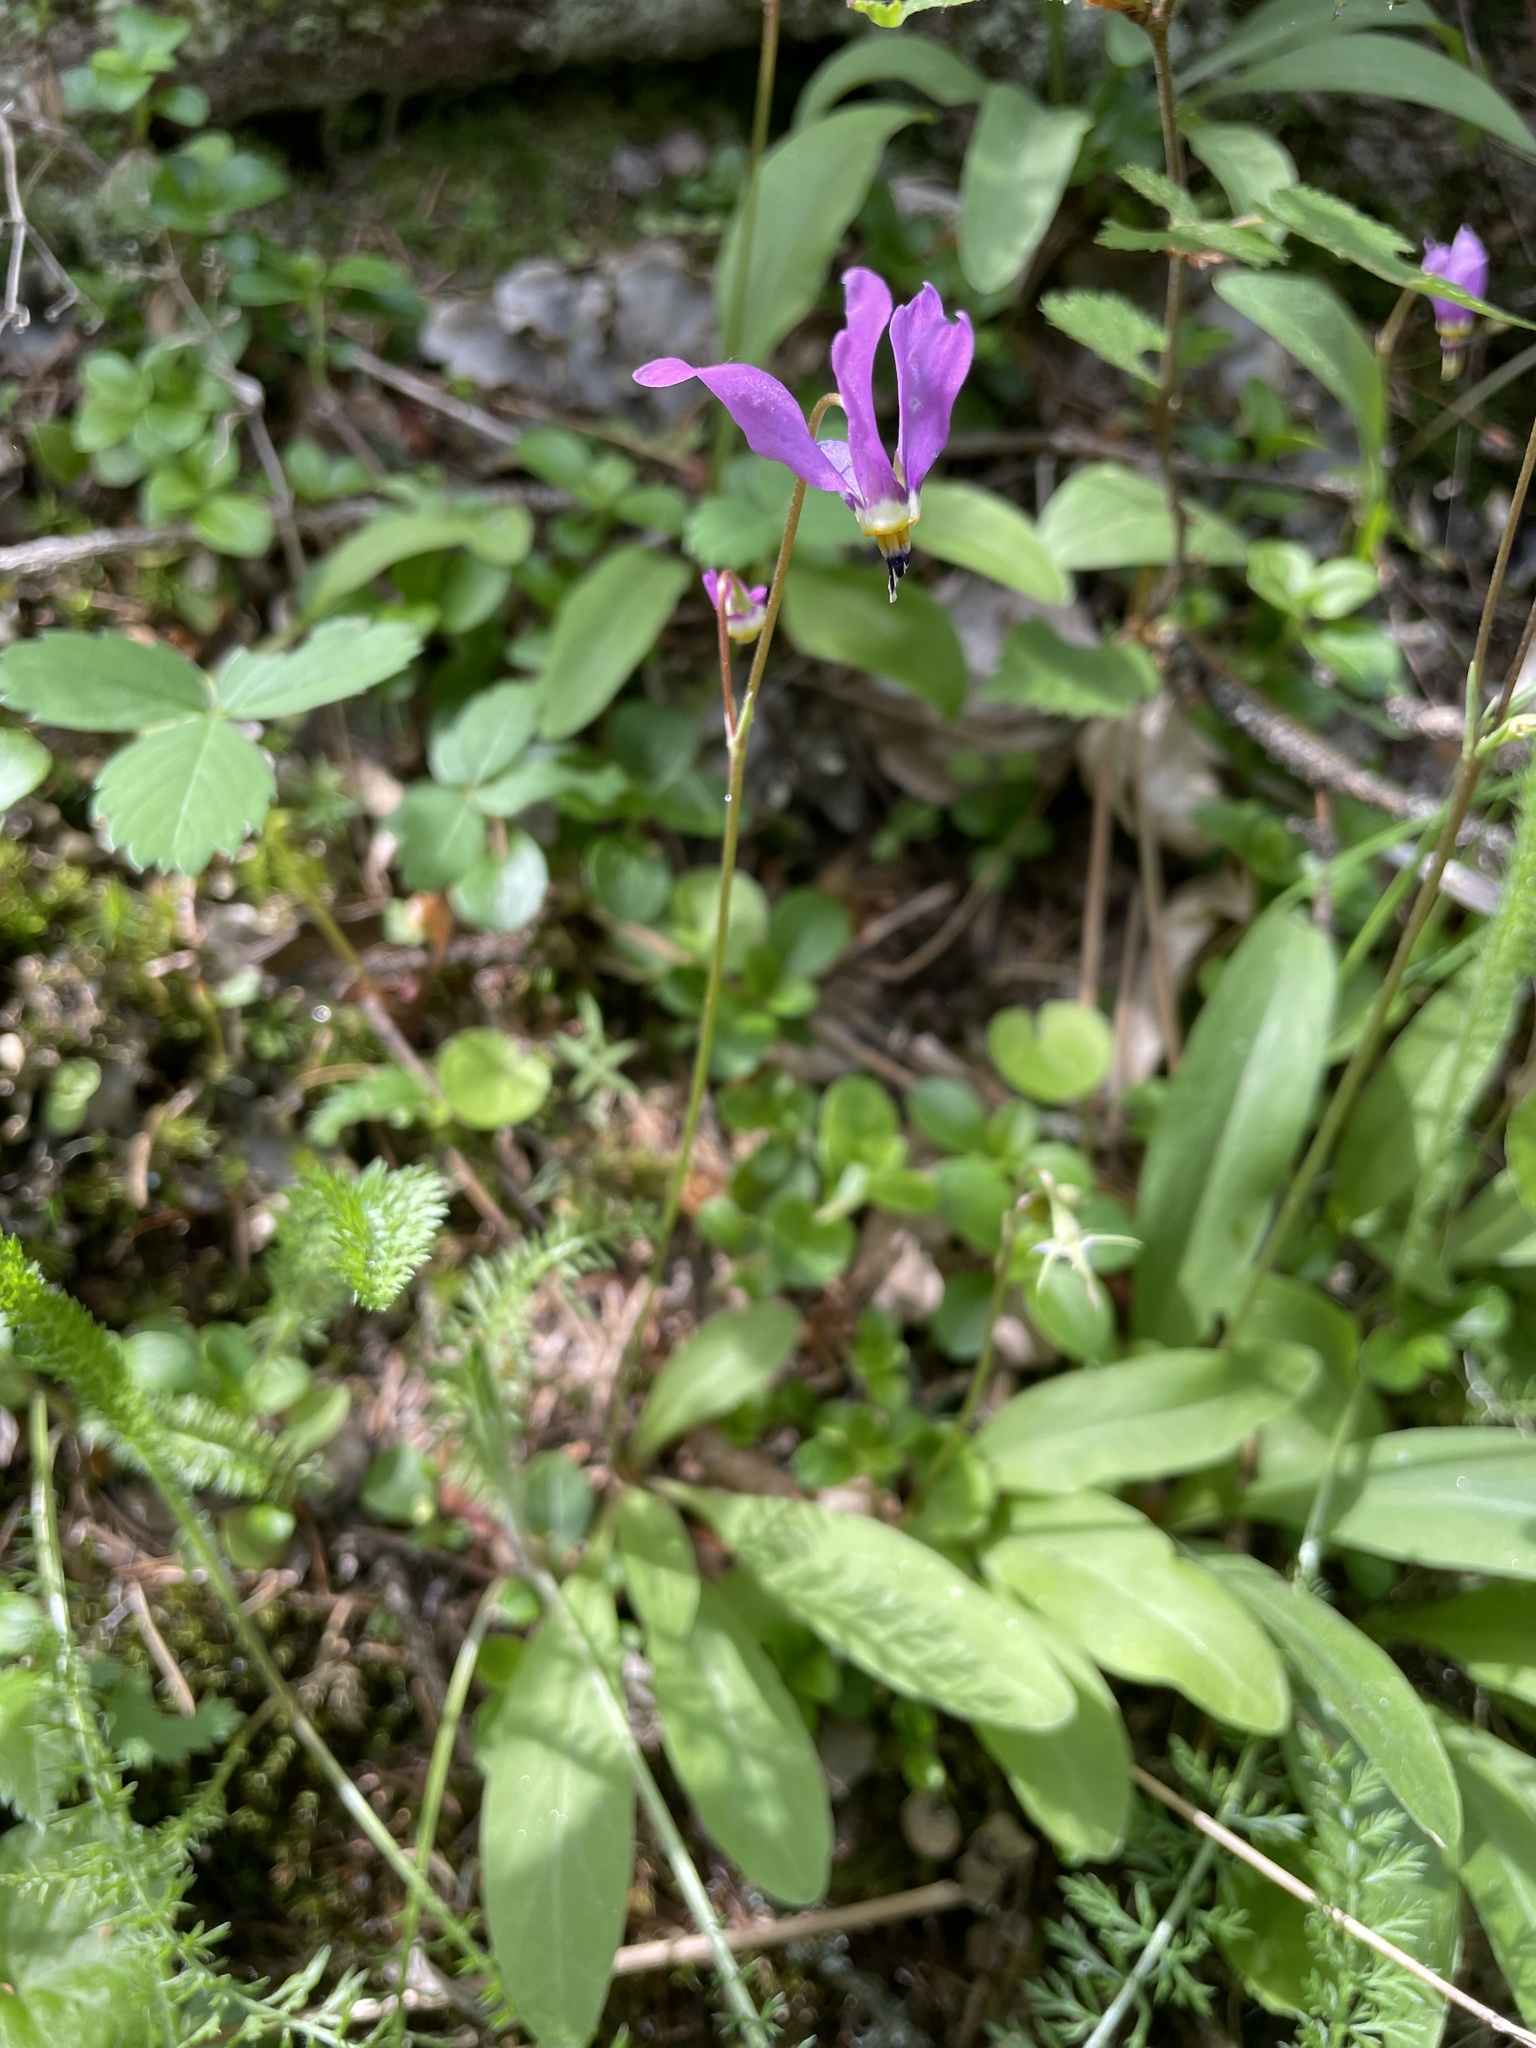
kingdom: Plantae
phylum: Tracheophyta
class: Magnoliopsida
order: Ericales
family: Primulaceae
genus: Dodecatheon
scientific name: Dodecatheon meadia
